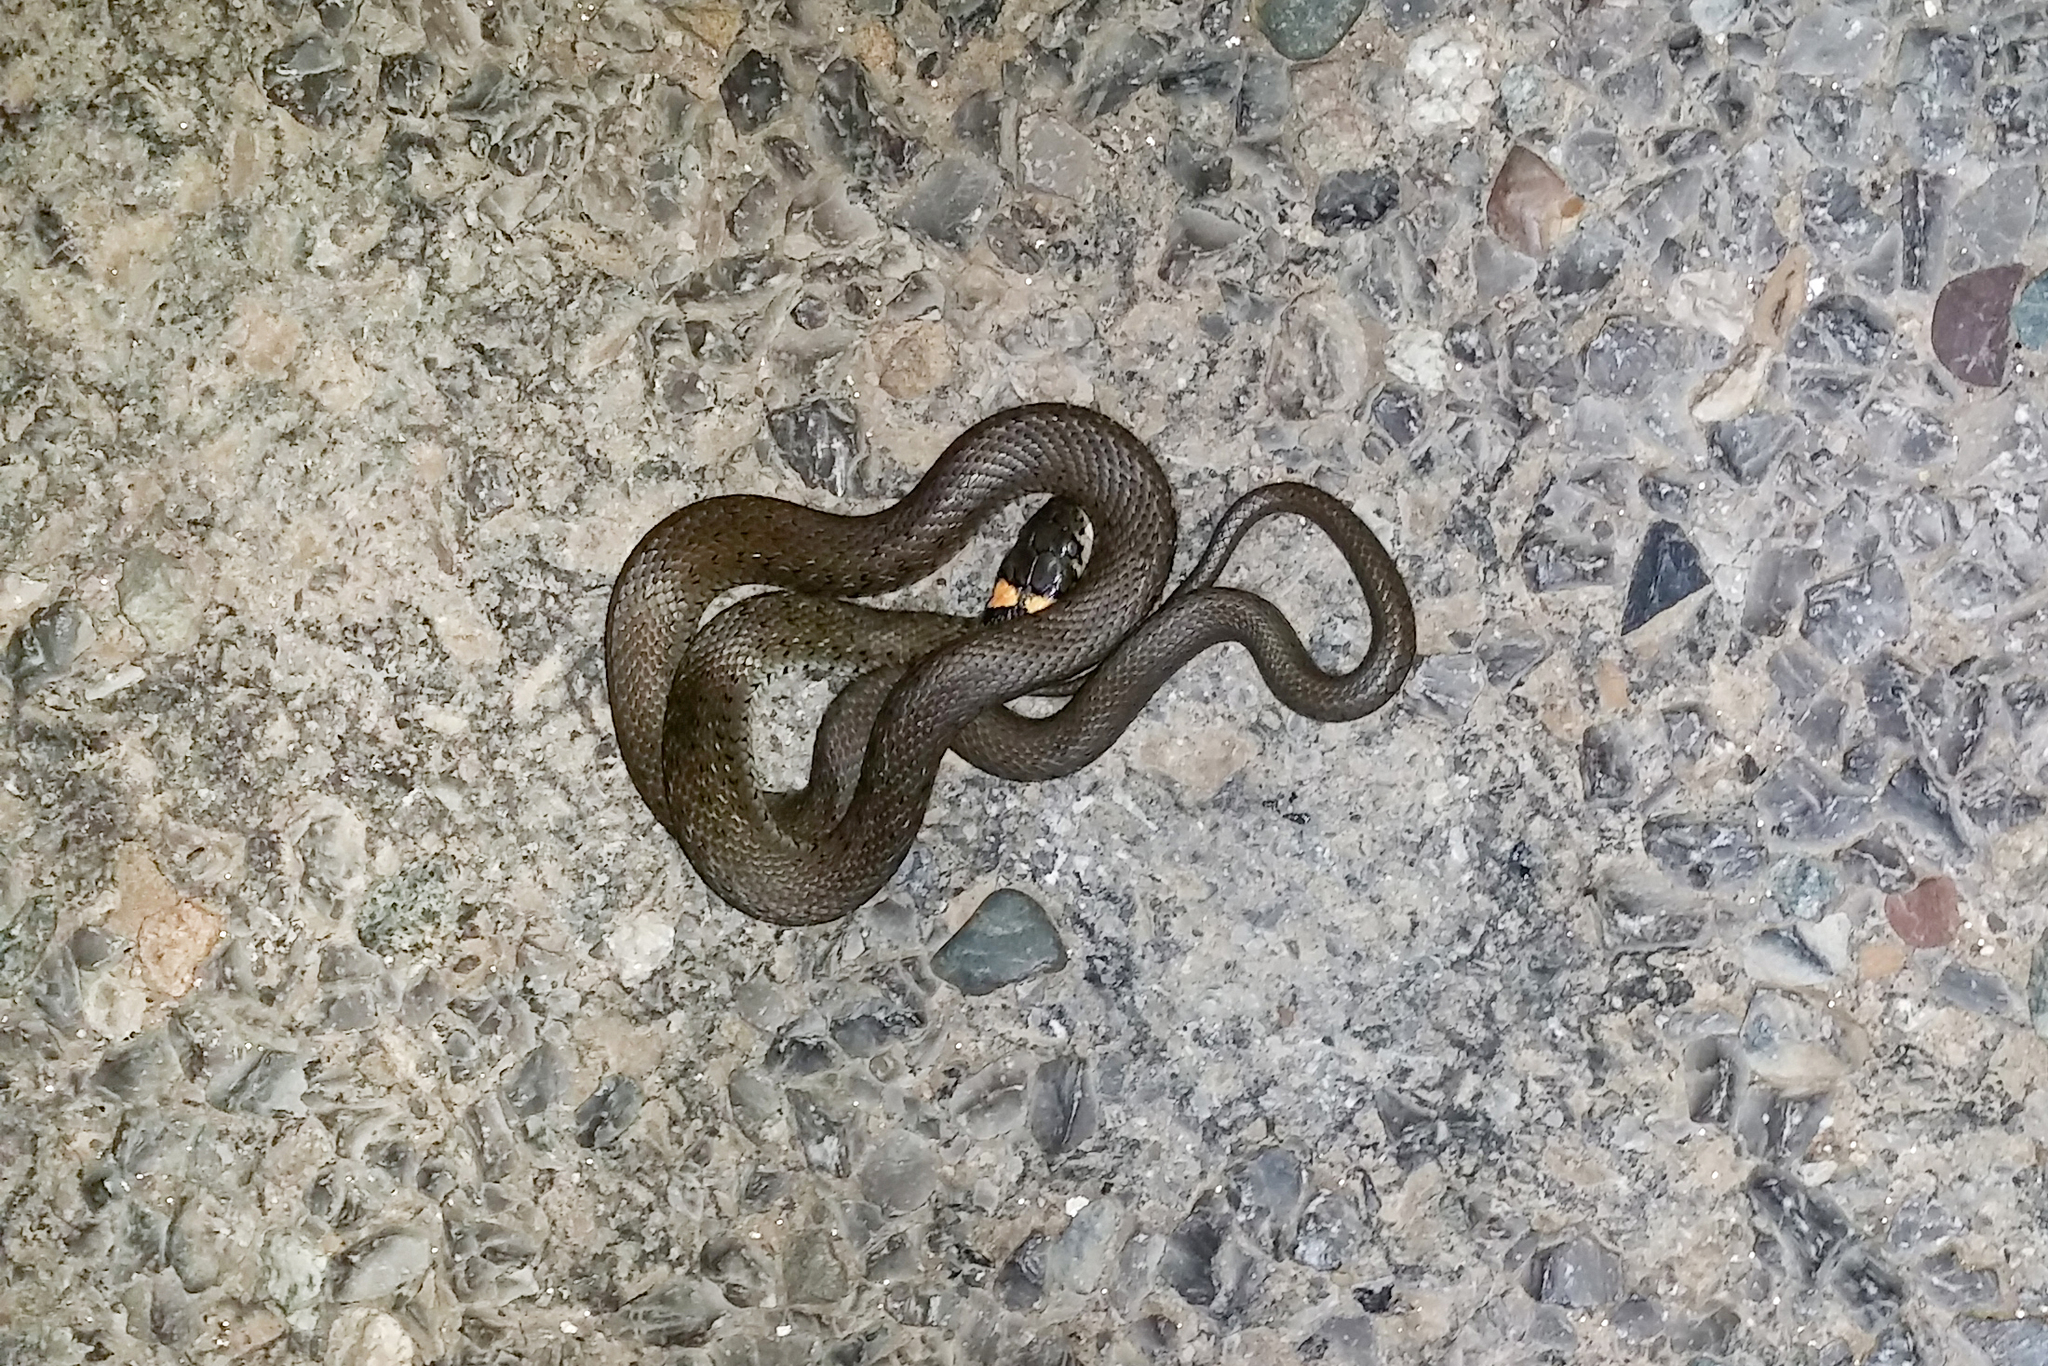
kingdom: Animalia
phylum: Chordata
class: Squamata
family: Colubridae
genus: Natrix
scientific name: Natrix natrix
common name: Grass snake
